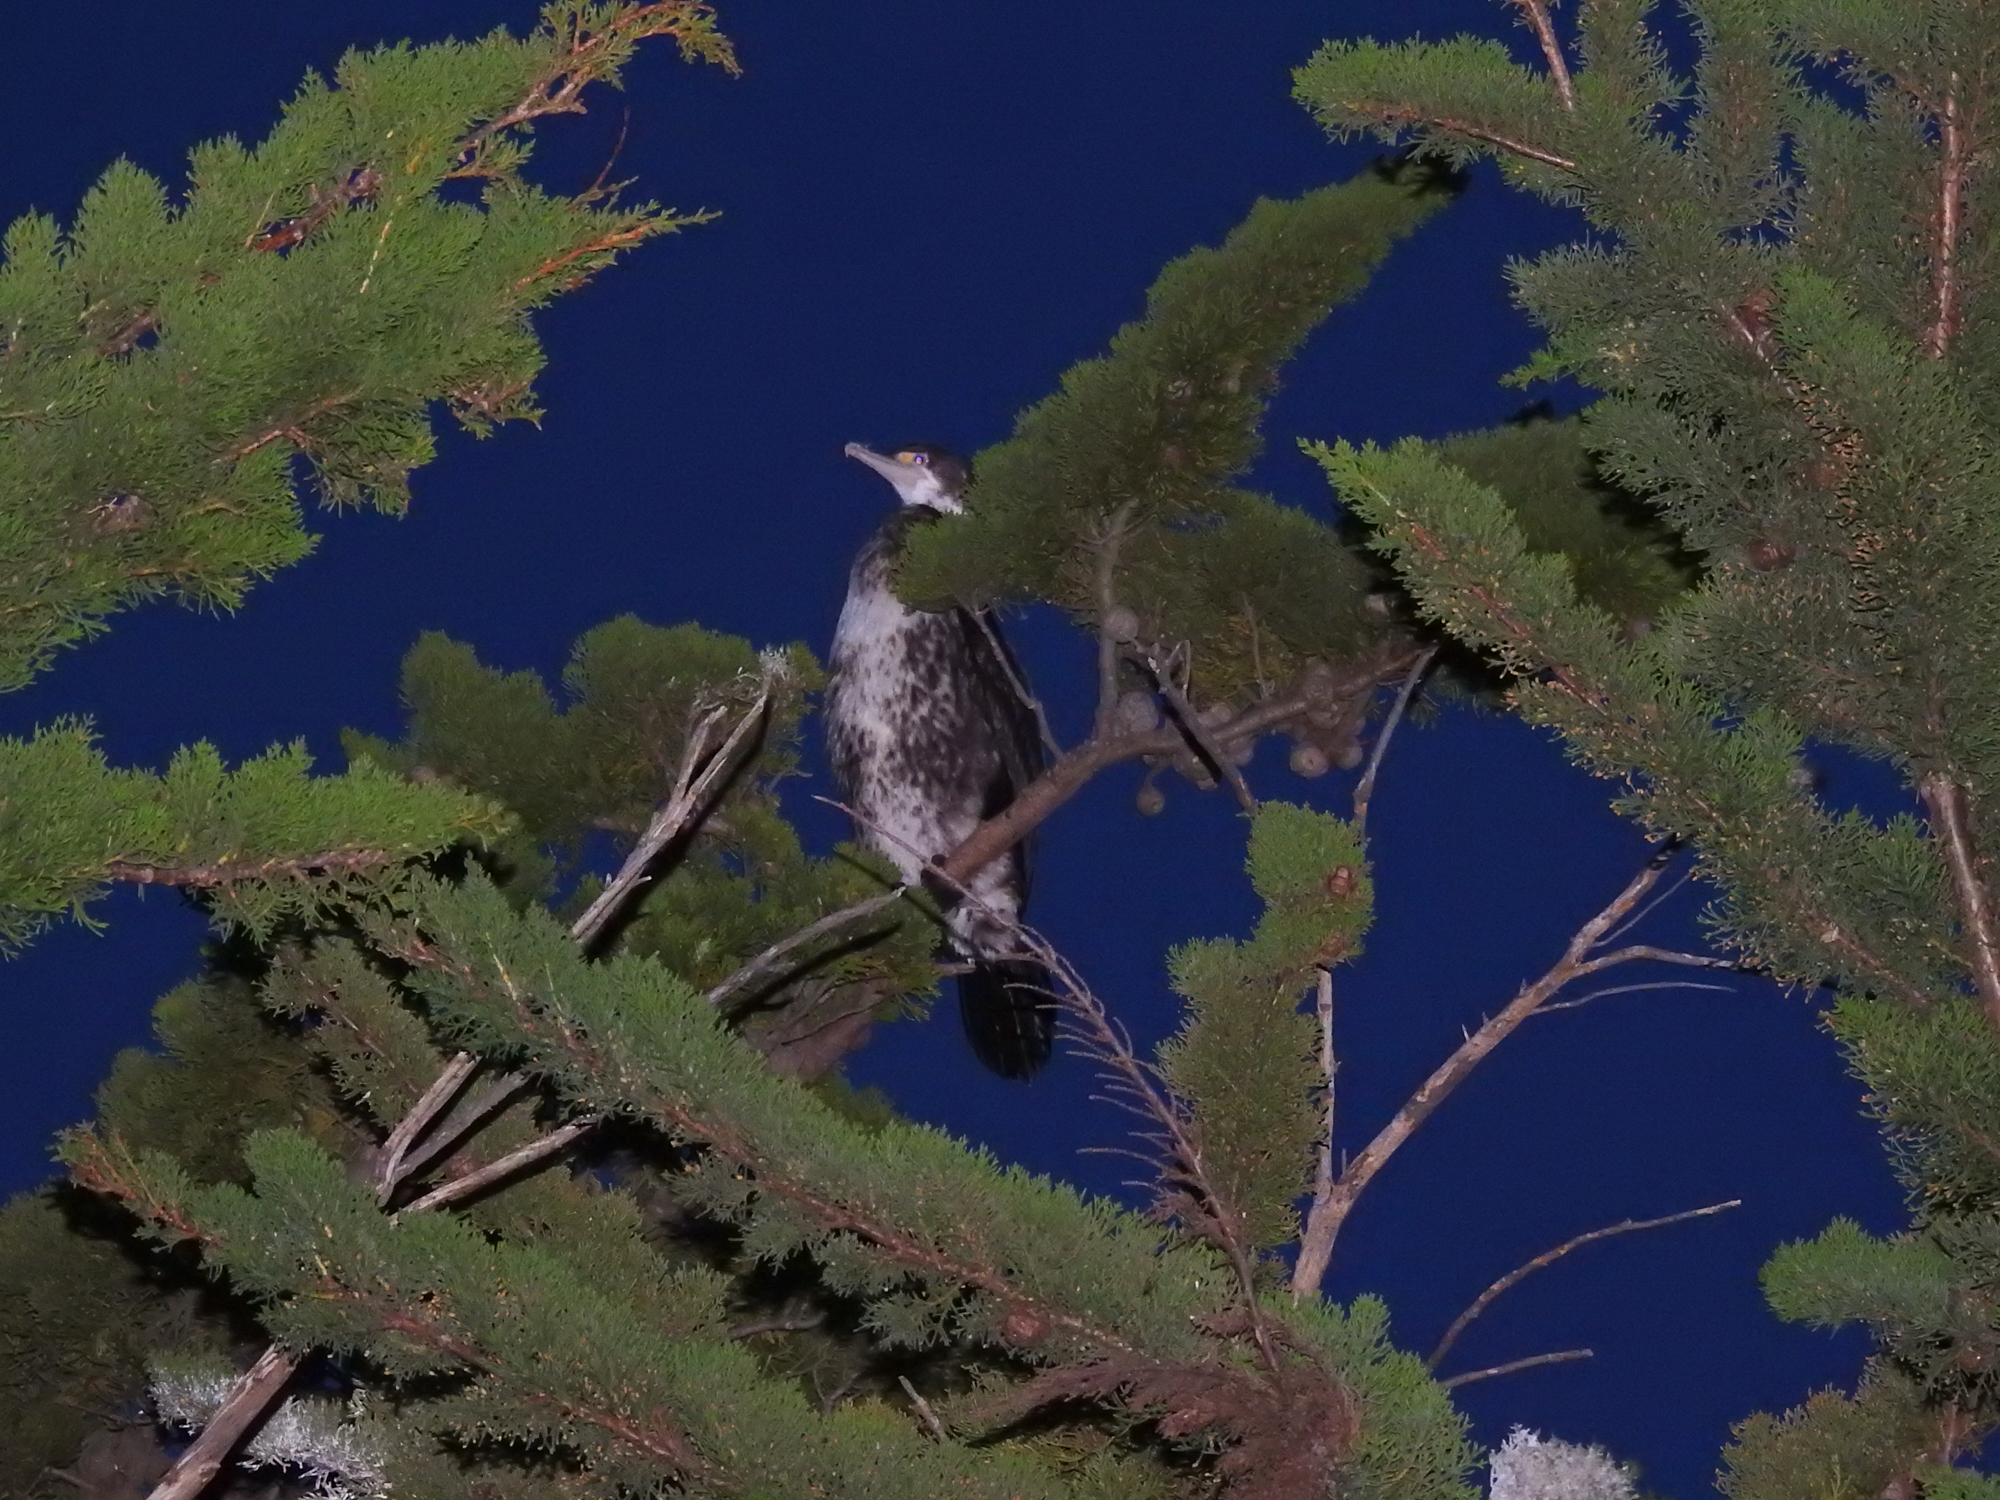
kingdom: Animalia
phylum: Chordata
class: Aves
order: Suliformes
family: Phalacrocoracidae
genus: Phalacrocorax
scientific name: Phalacrocorax varius
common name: Pied cormorant
